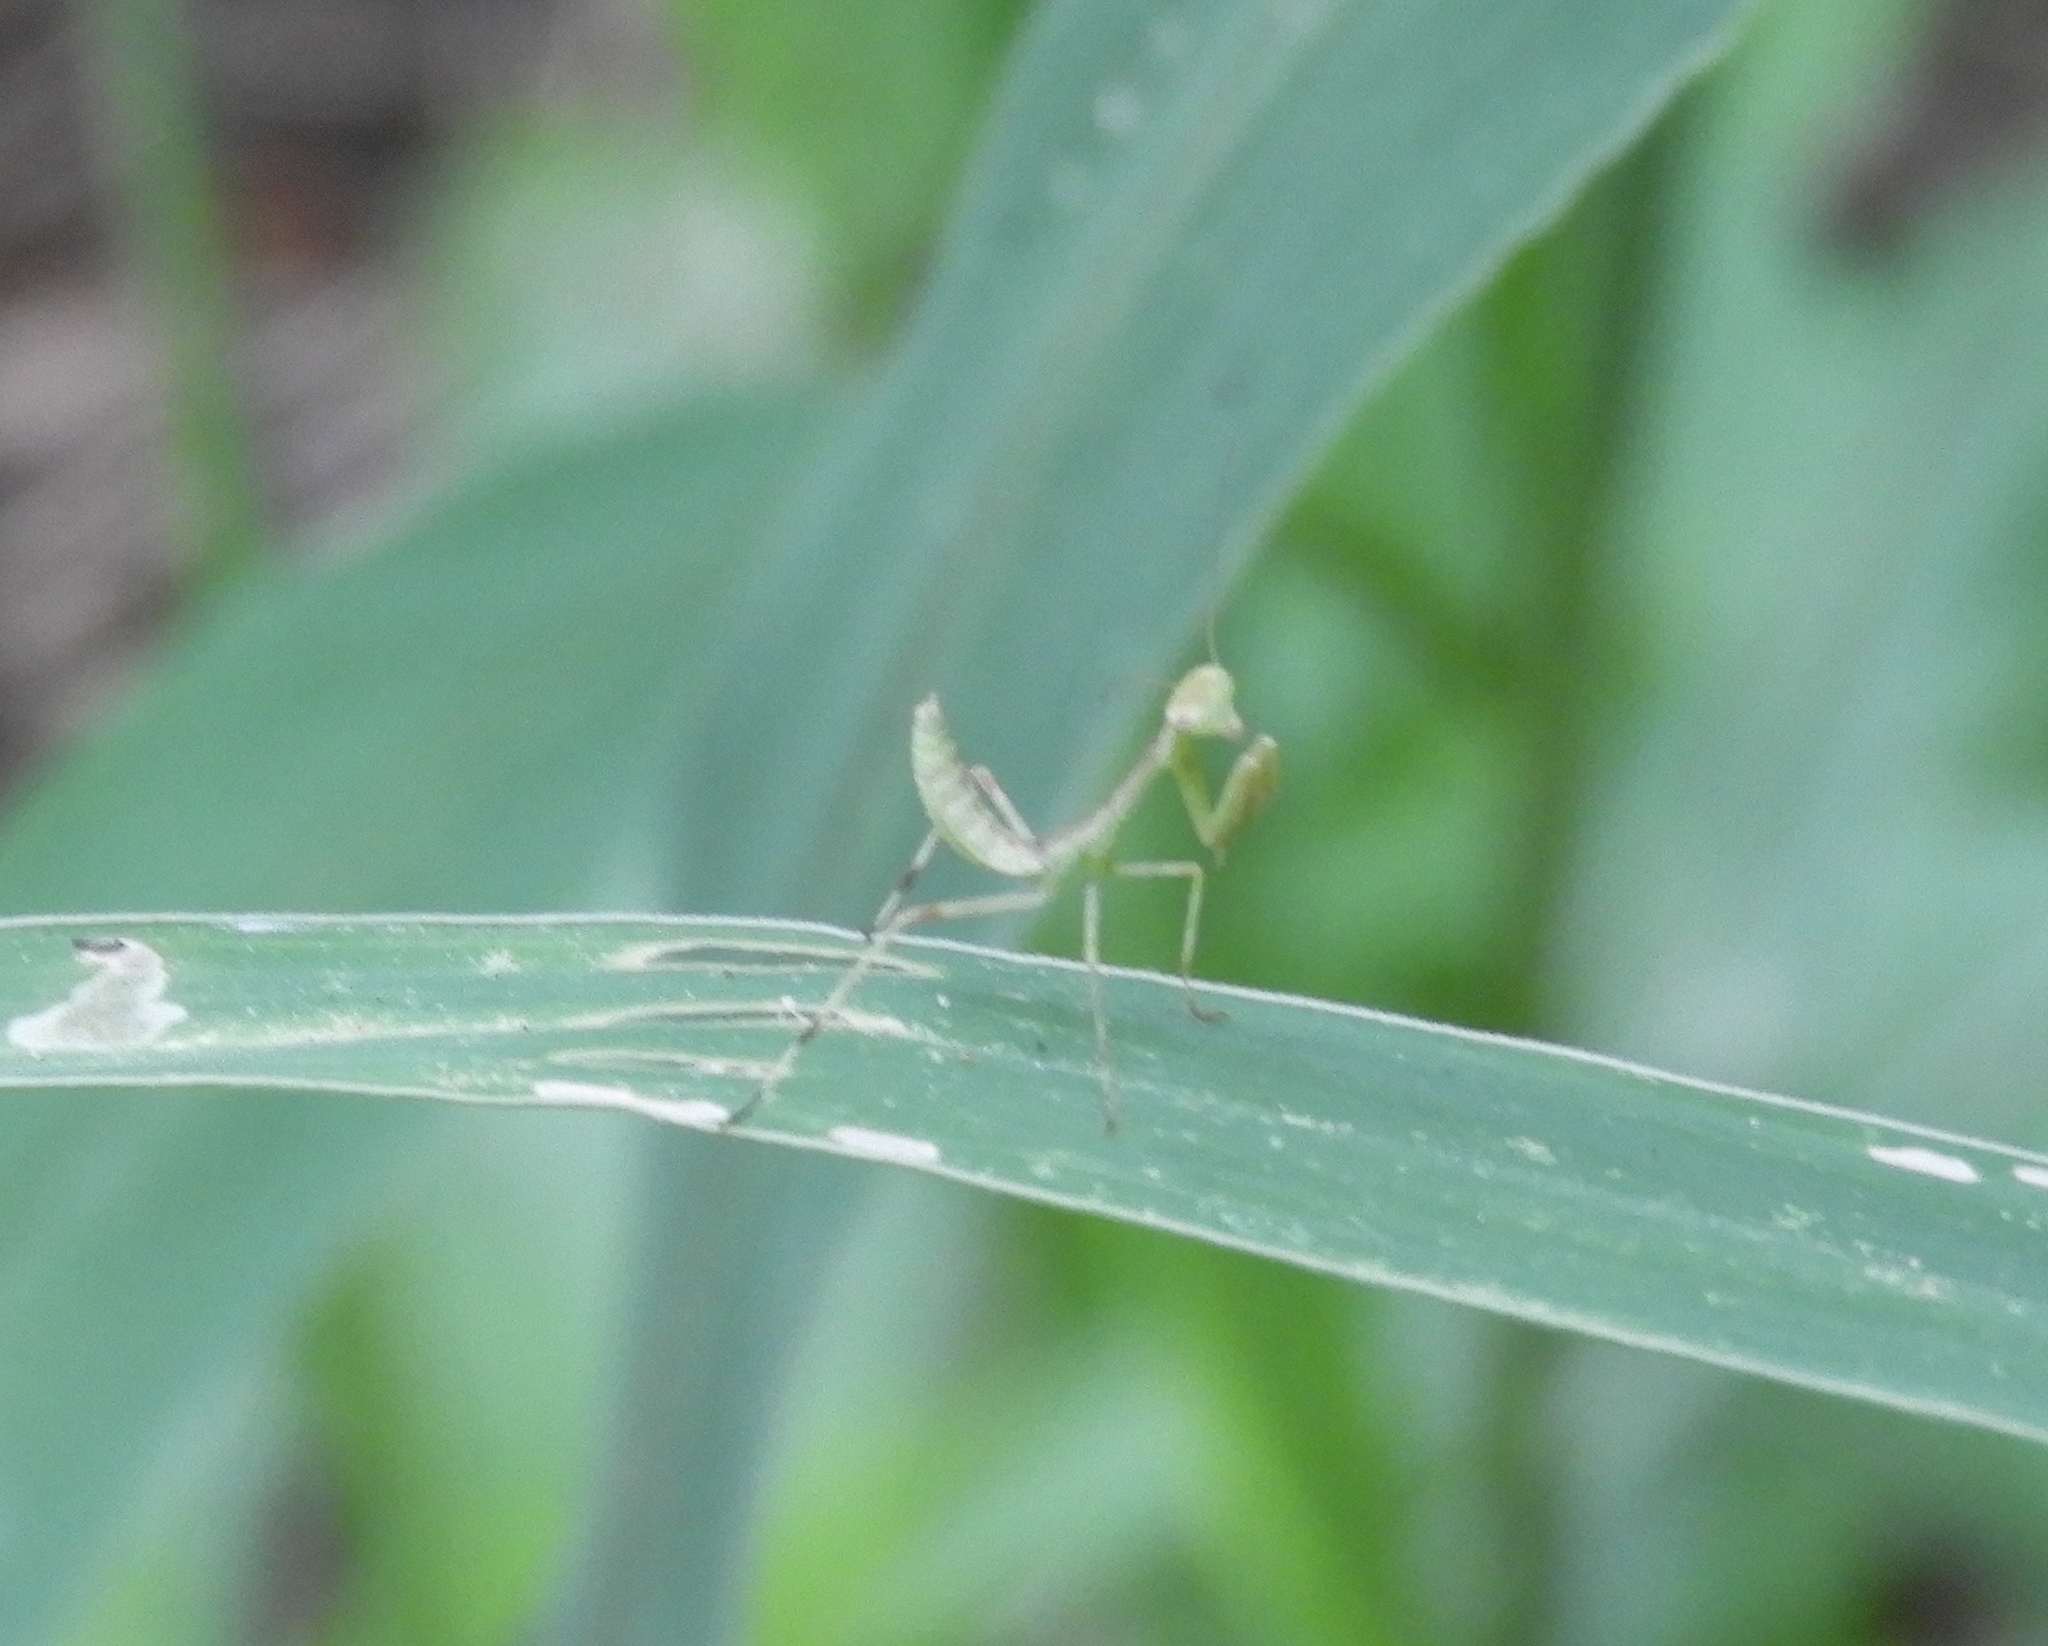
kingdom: Animalia
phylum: Arthropoda
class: Insecta
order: Mantodea
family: Mantidae
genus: Stagmomantis
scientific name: Stagmomantis
